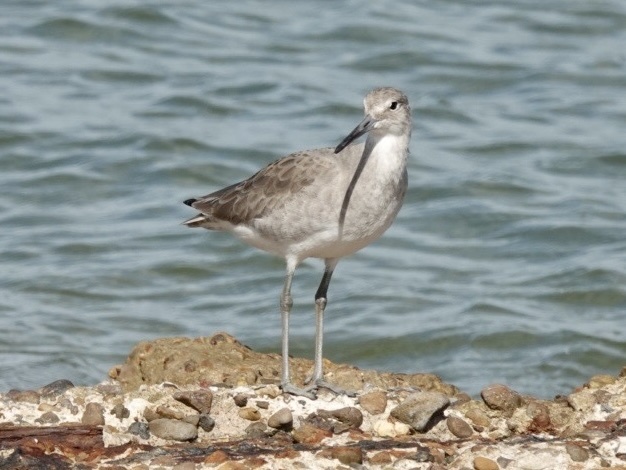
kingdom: Animalia
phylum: Chordata
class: Aves
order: Charadriiformes
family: Scolopacidae
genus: Tringa
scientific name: Tringa semipalmata
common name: Willet
